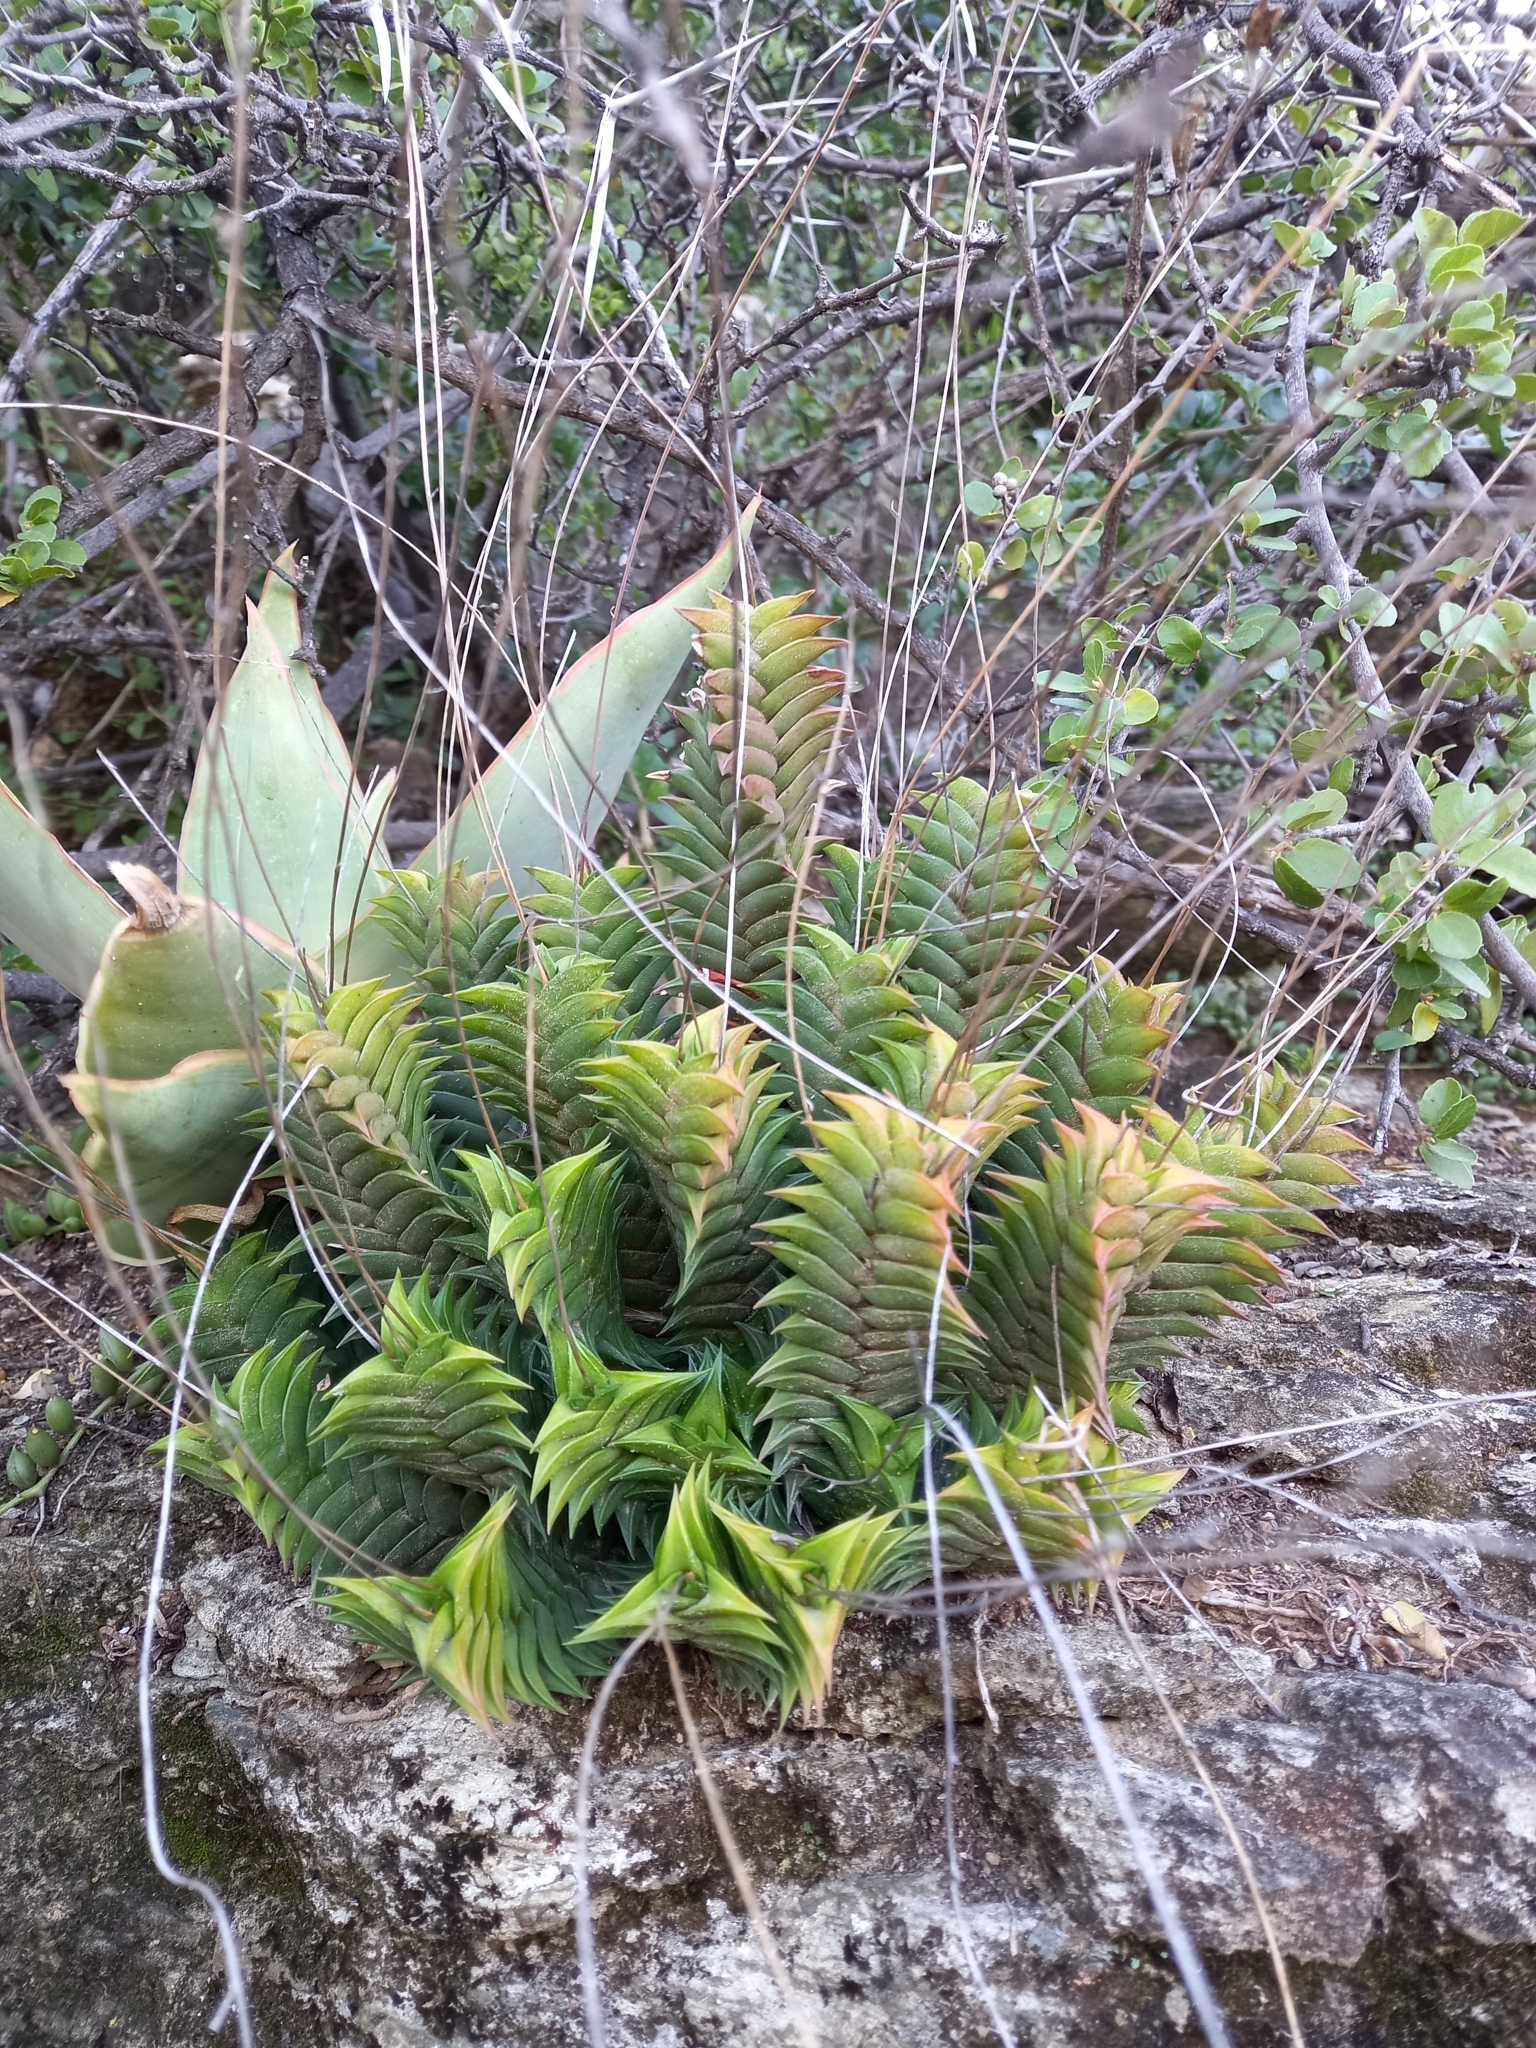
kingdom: Plantae
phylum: Tracheophyta
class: Liliopsida
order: Asparagales
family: Asphodelaceae
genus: Haworthiopsis
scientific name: Haworthiopsis viscosa
